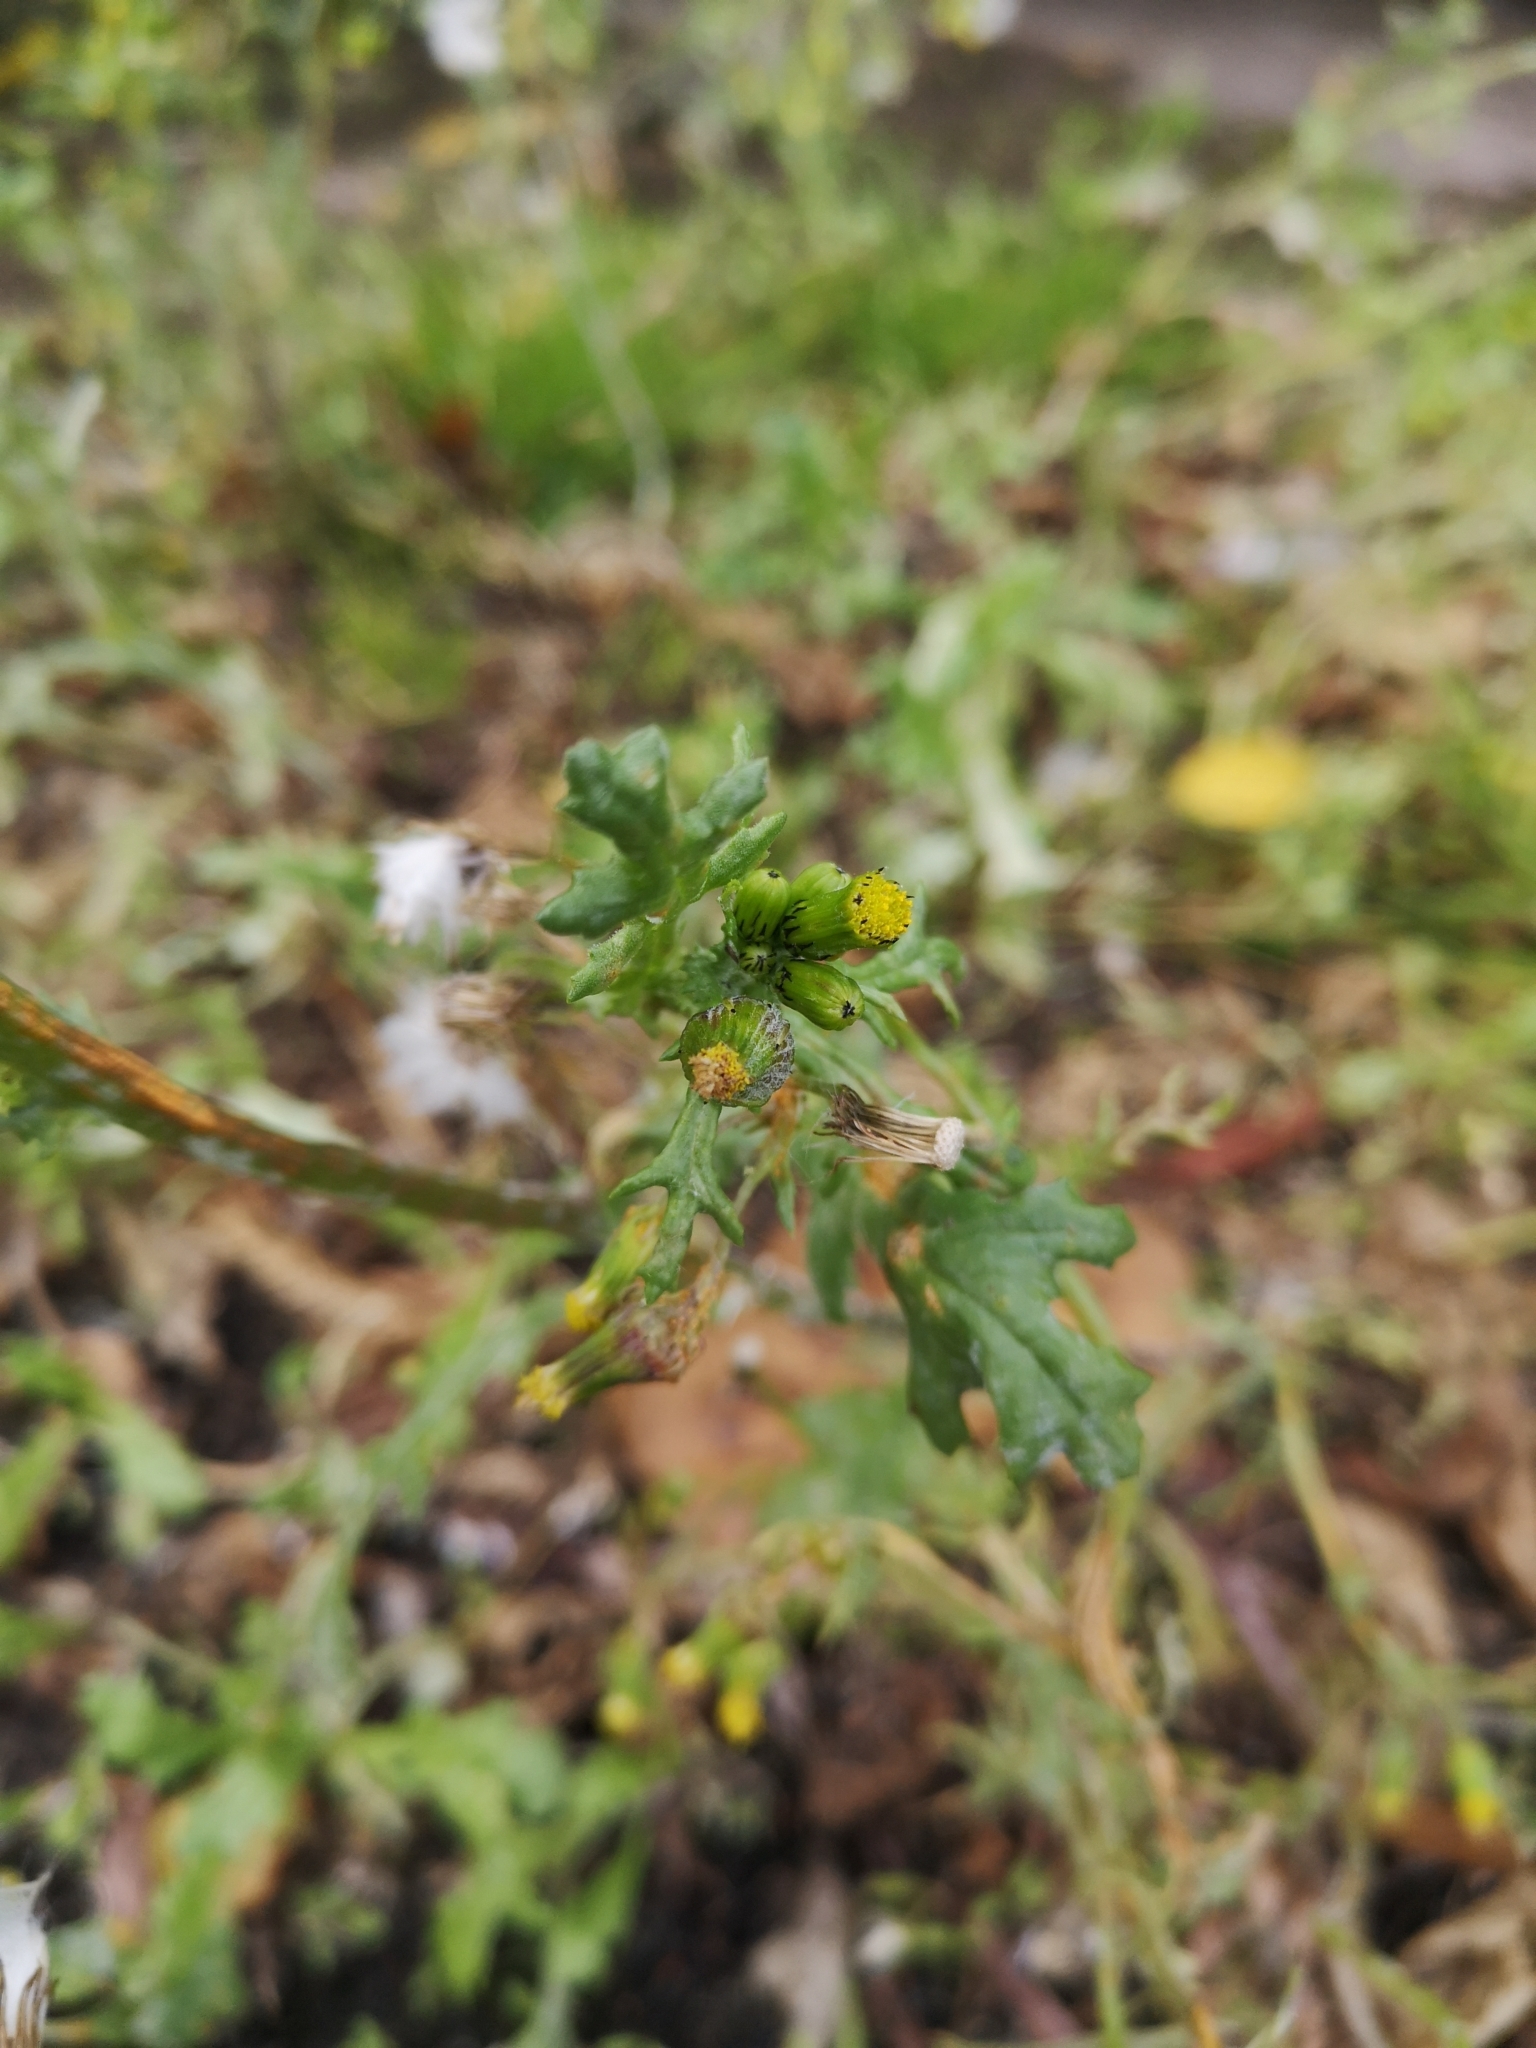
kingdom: Plantae
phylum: Tracheophyta
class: Magnoliopsida
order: Asterales
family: Asteraceae
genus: Senecio
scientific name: Senecio vulgaris
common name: Old-man-in-the-spring
